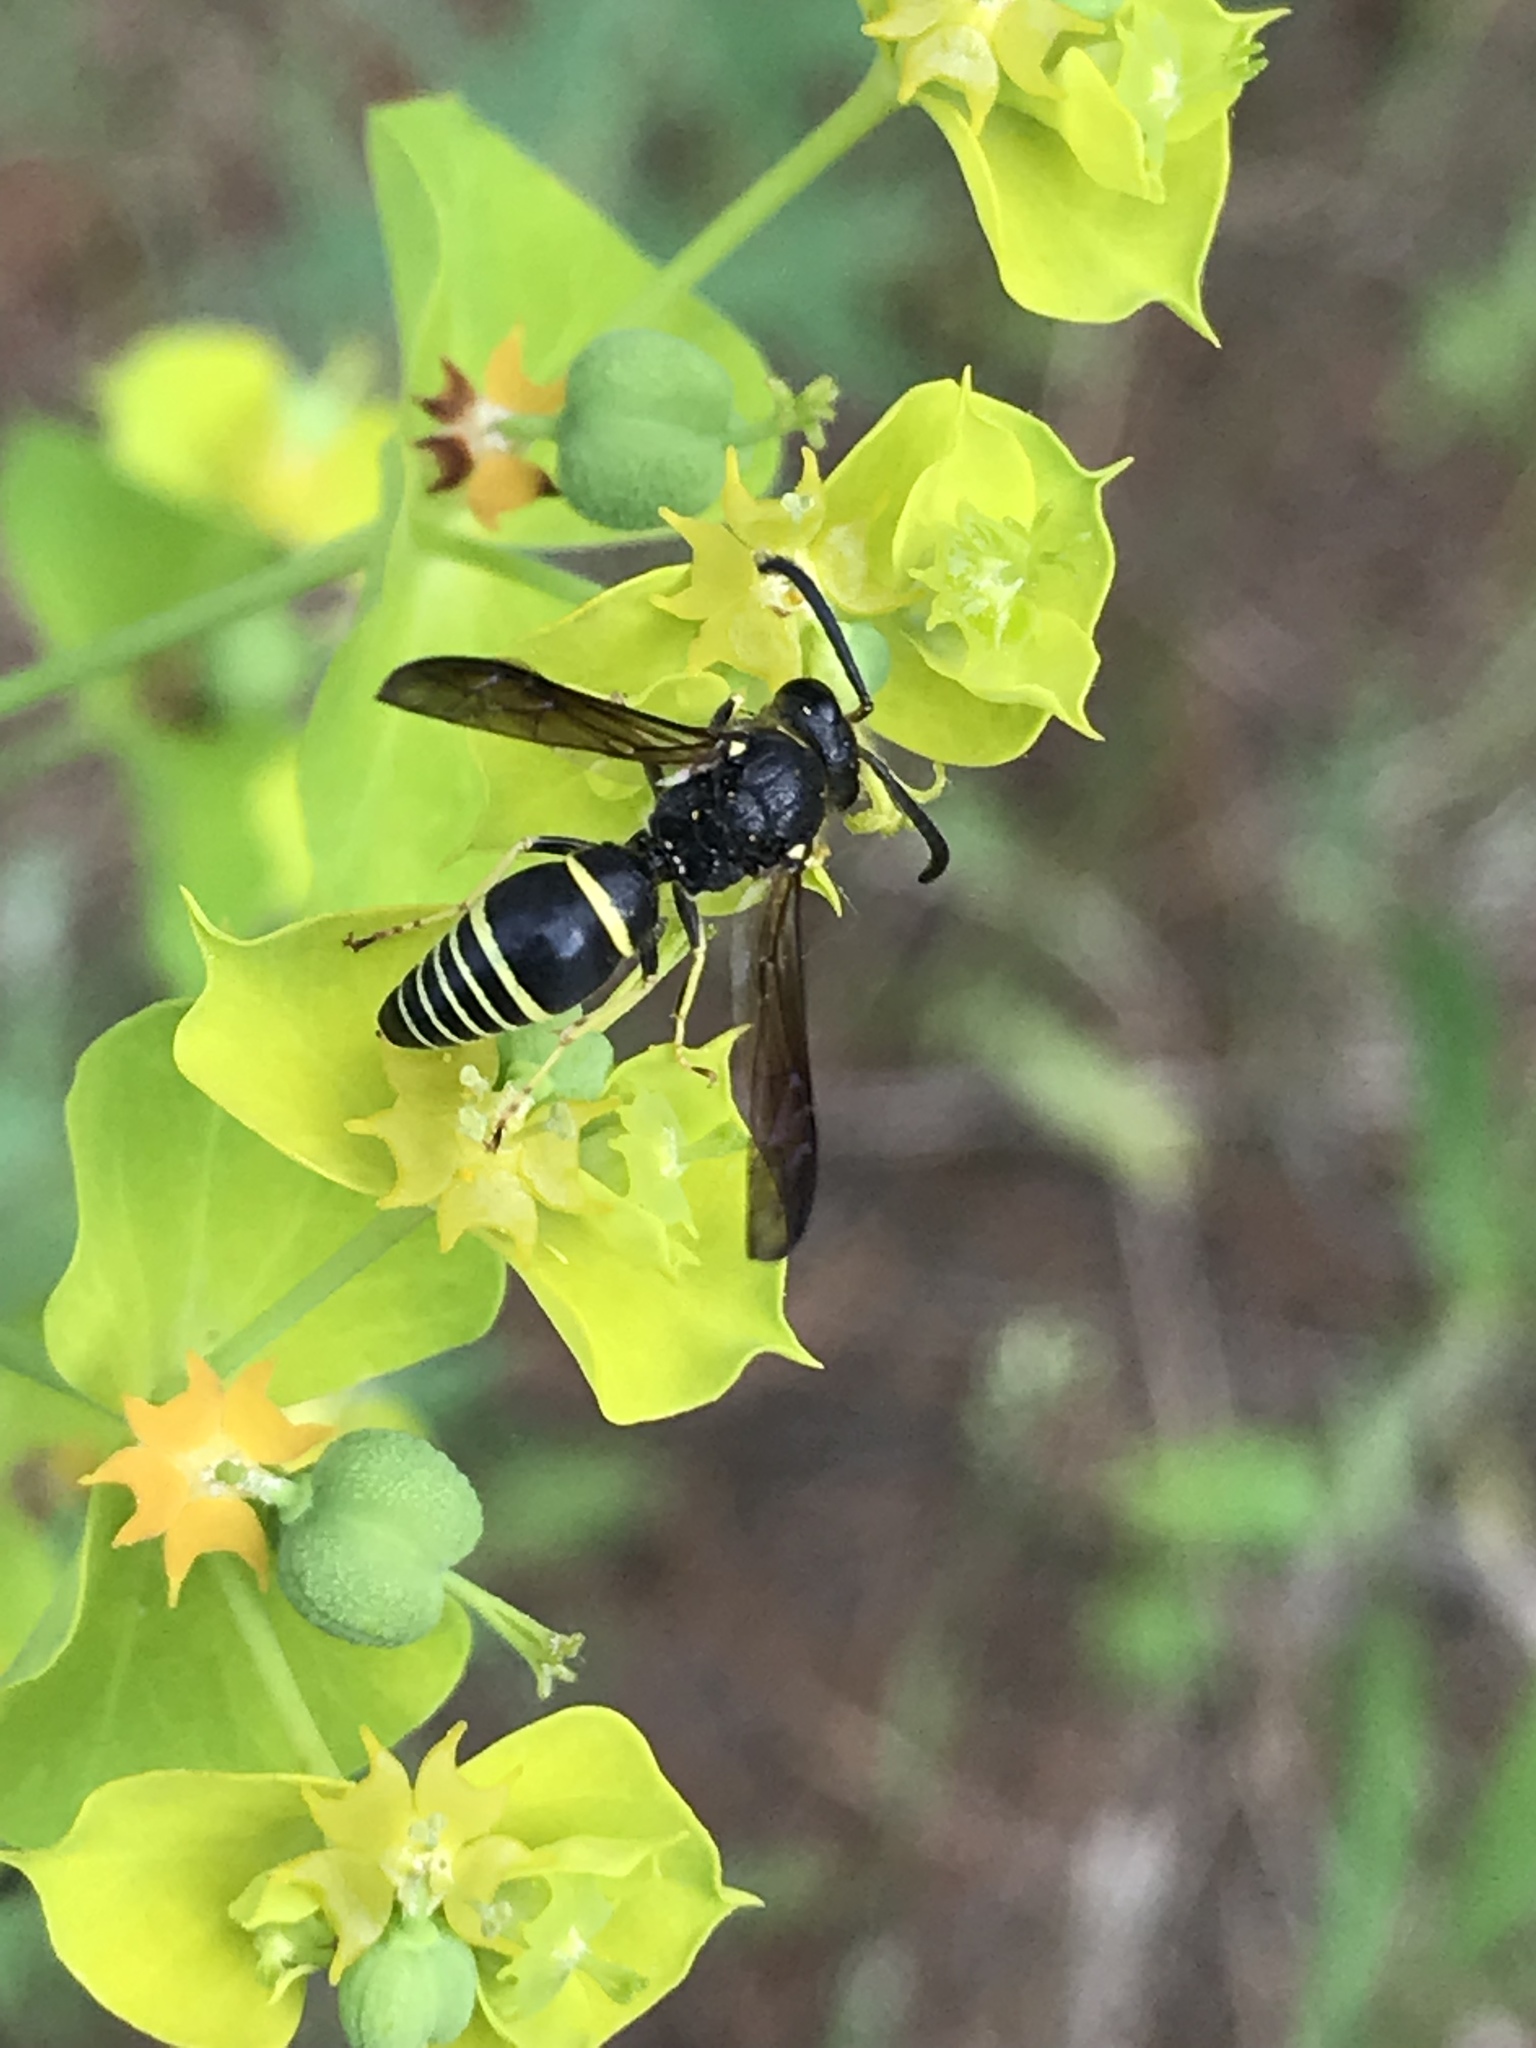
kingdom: Animalia
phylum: Arthropoda
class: Insecta
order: Hymenoptera
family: Vespidae
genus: Ancistrocerus
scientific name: Ancistrocerus
